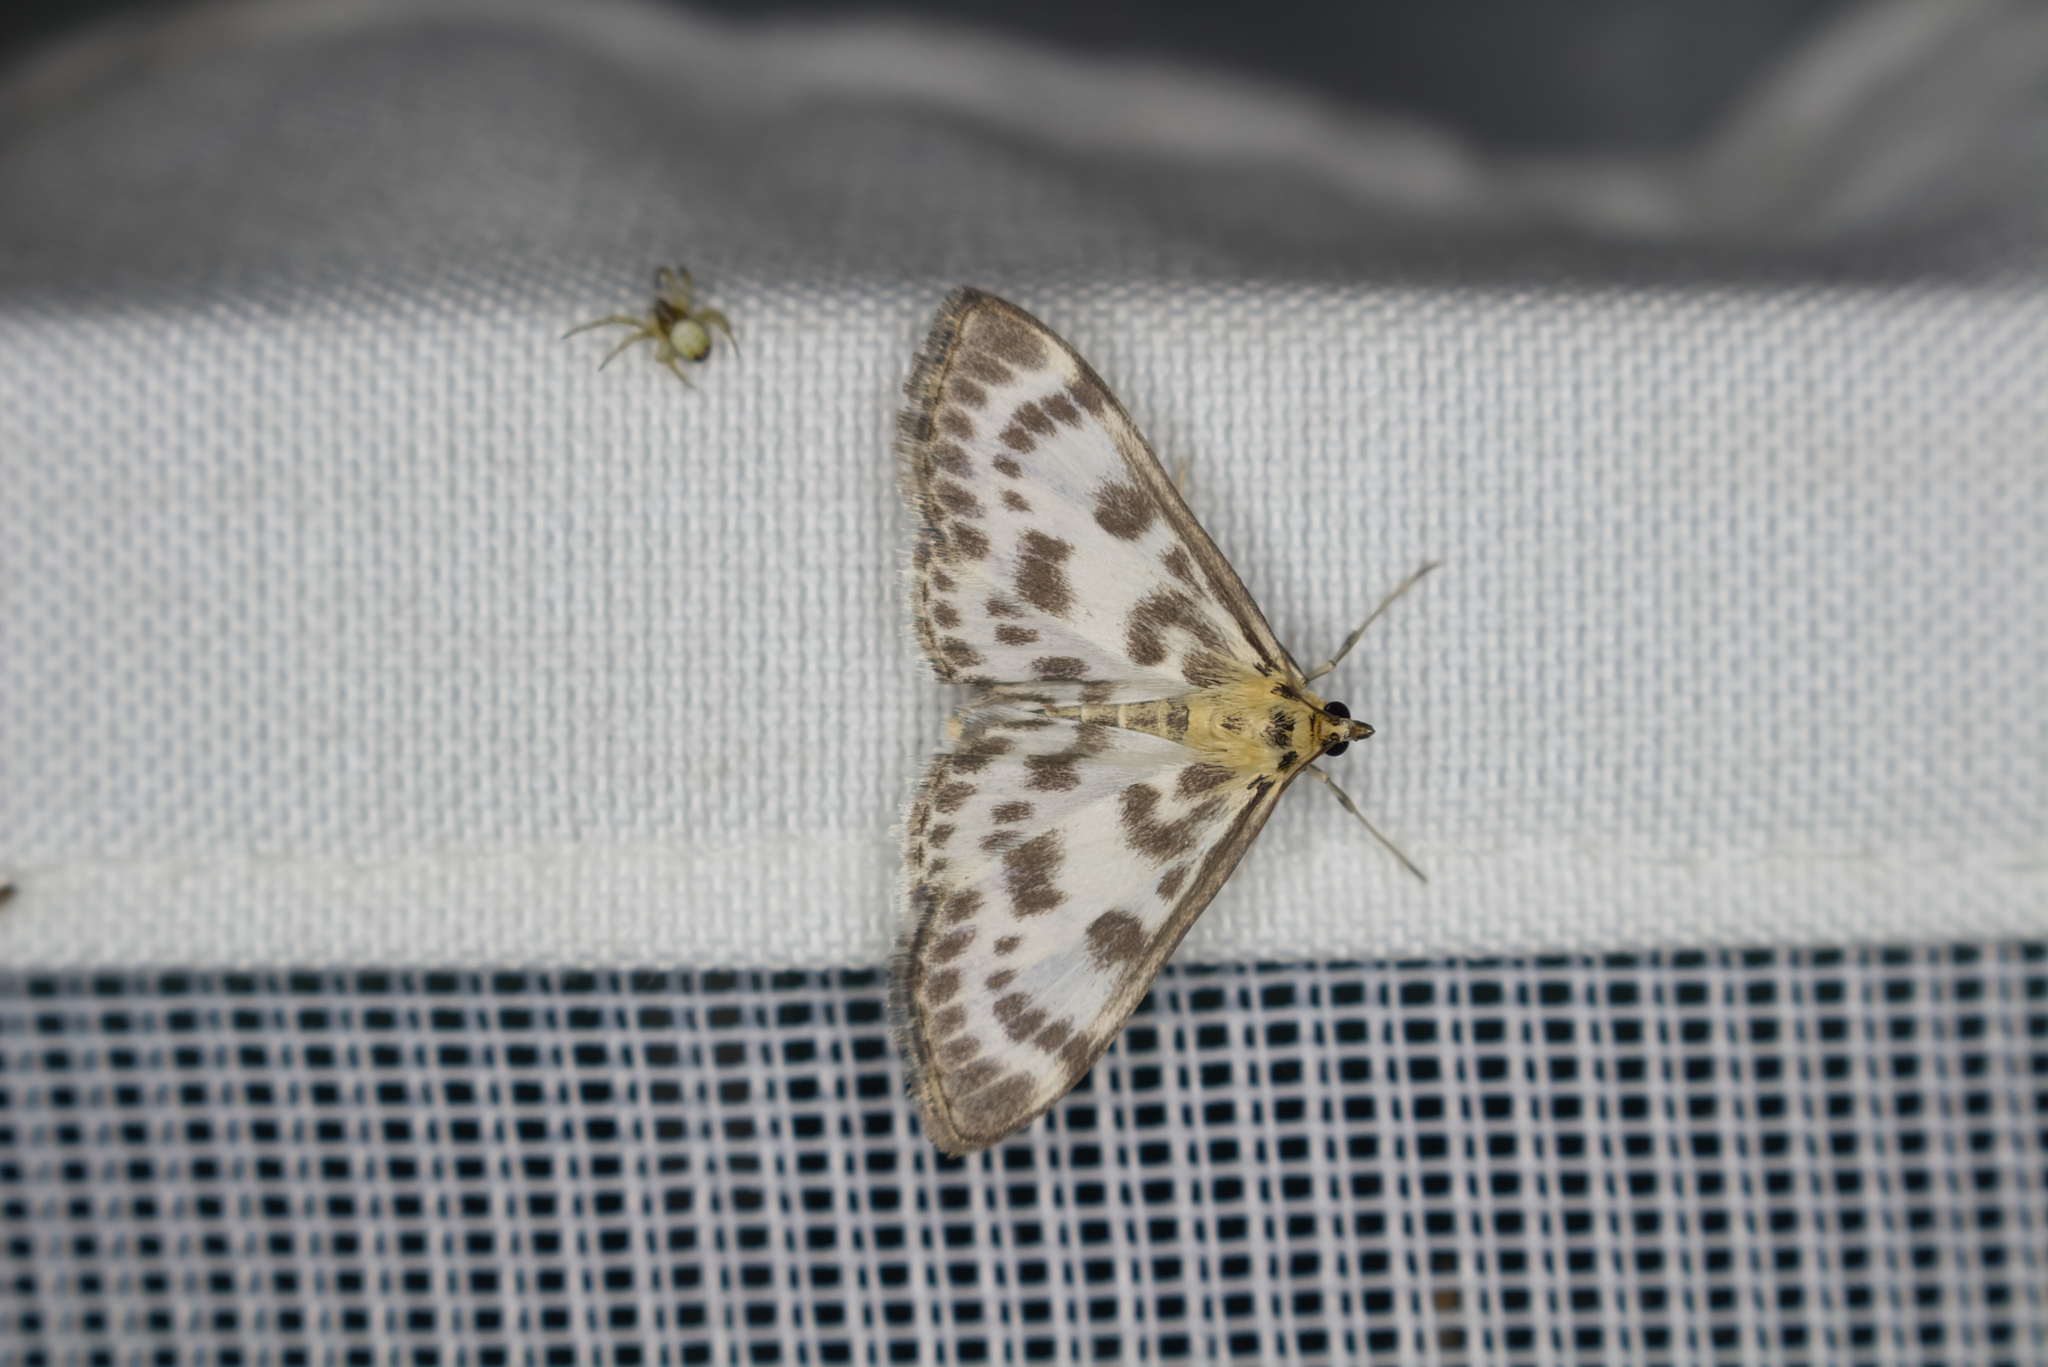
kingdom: Animalia
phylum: Arthropoda
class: Insecta
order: Lepidoptera
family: Crambidae
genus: Anania
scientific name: Anania hortulata
